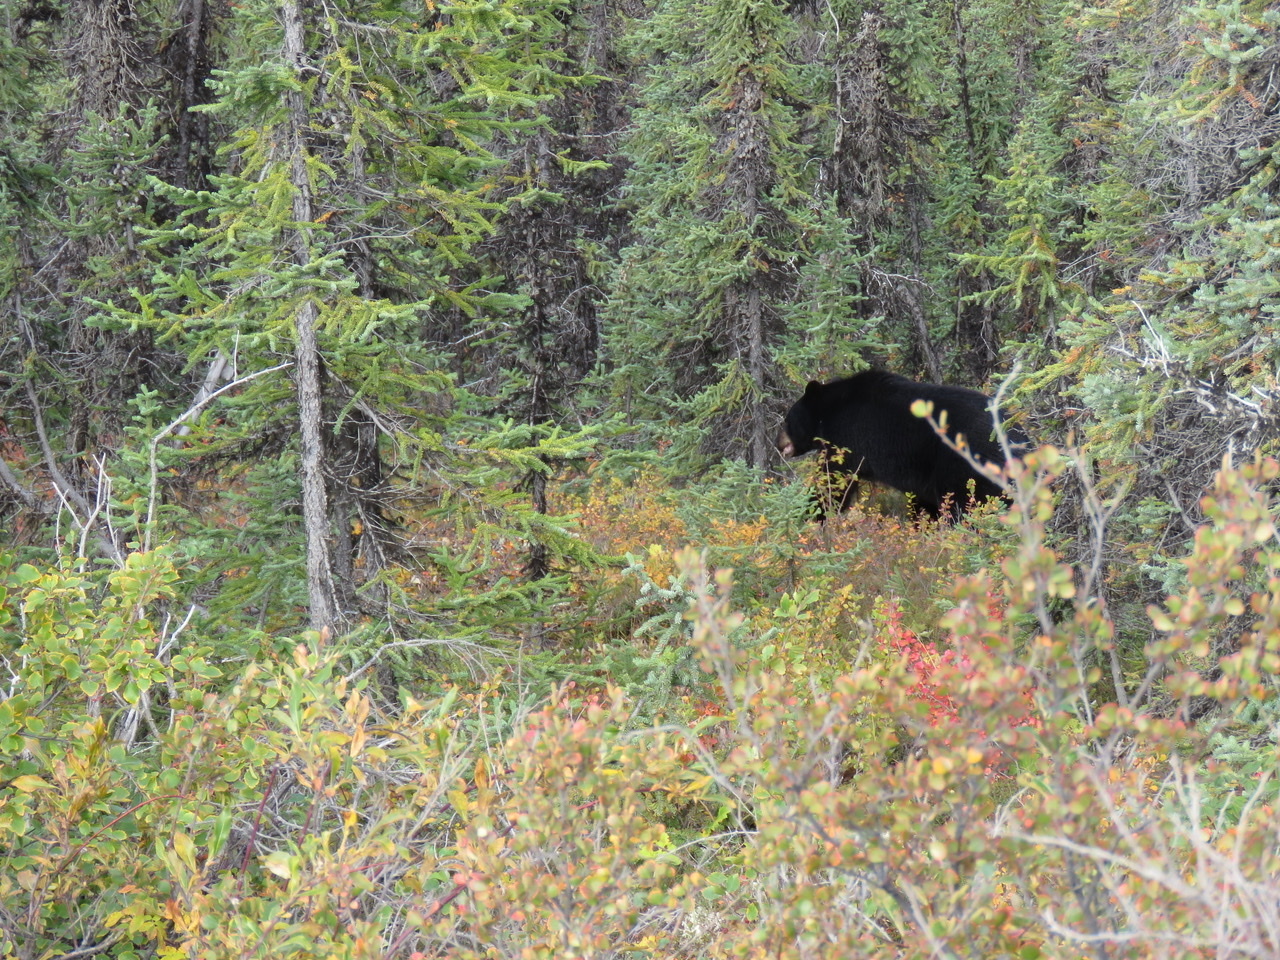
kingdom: Animalia
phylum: Chordata
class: Mammalia
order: Carnivora
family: Ursidae
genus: Ursus
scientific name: Ursus americanus
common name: American black bear
